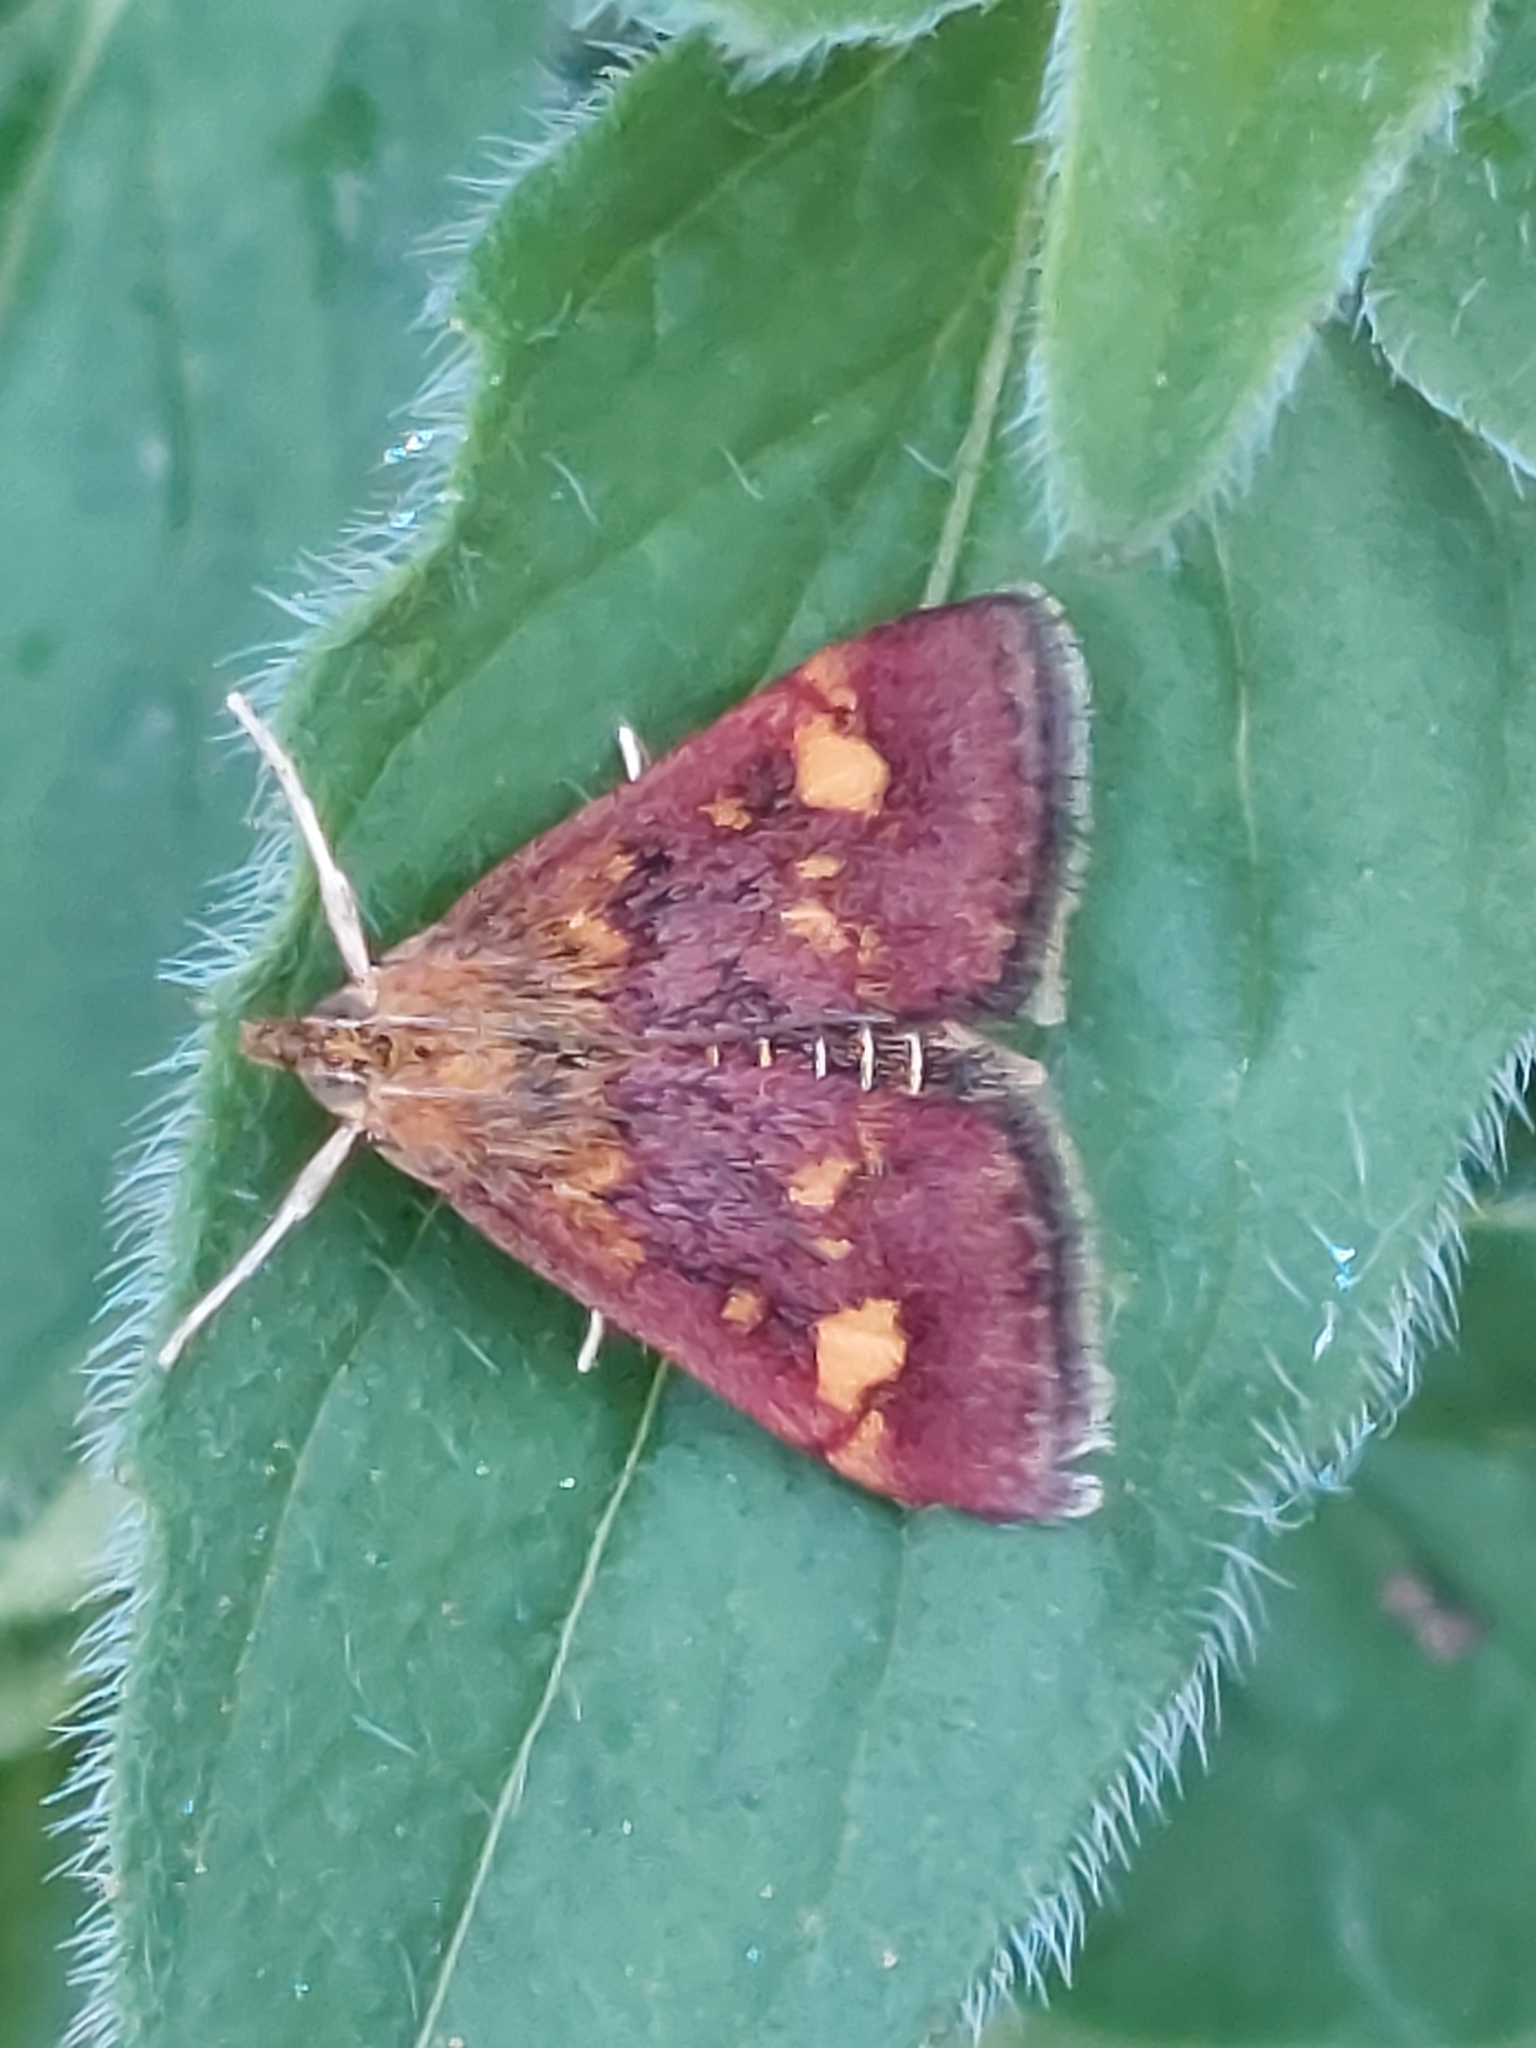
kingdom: Animalia
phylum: Arthropoda
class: Insecta
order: Lepidoptera
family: Crambidae
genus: Pyrausta
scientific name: Pyrausta aurata
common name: Small purple & gold
